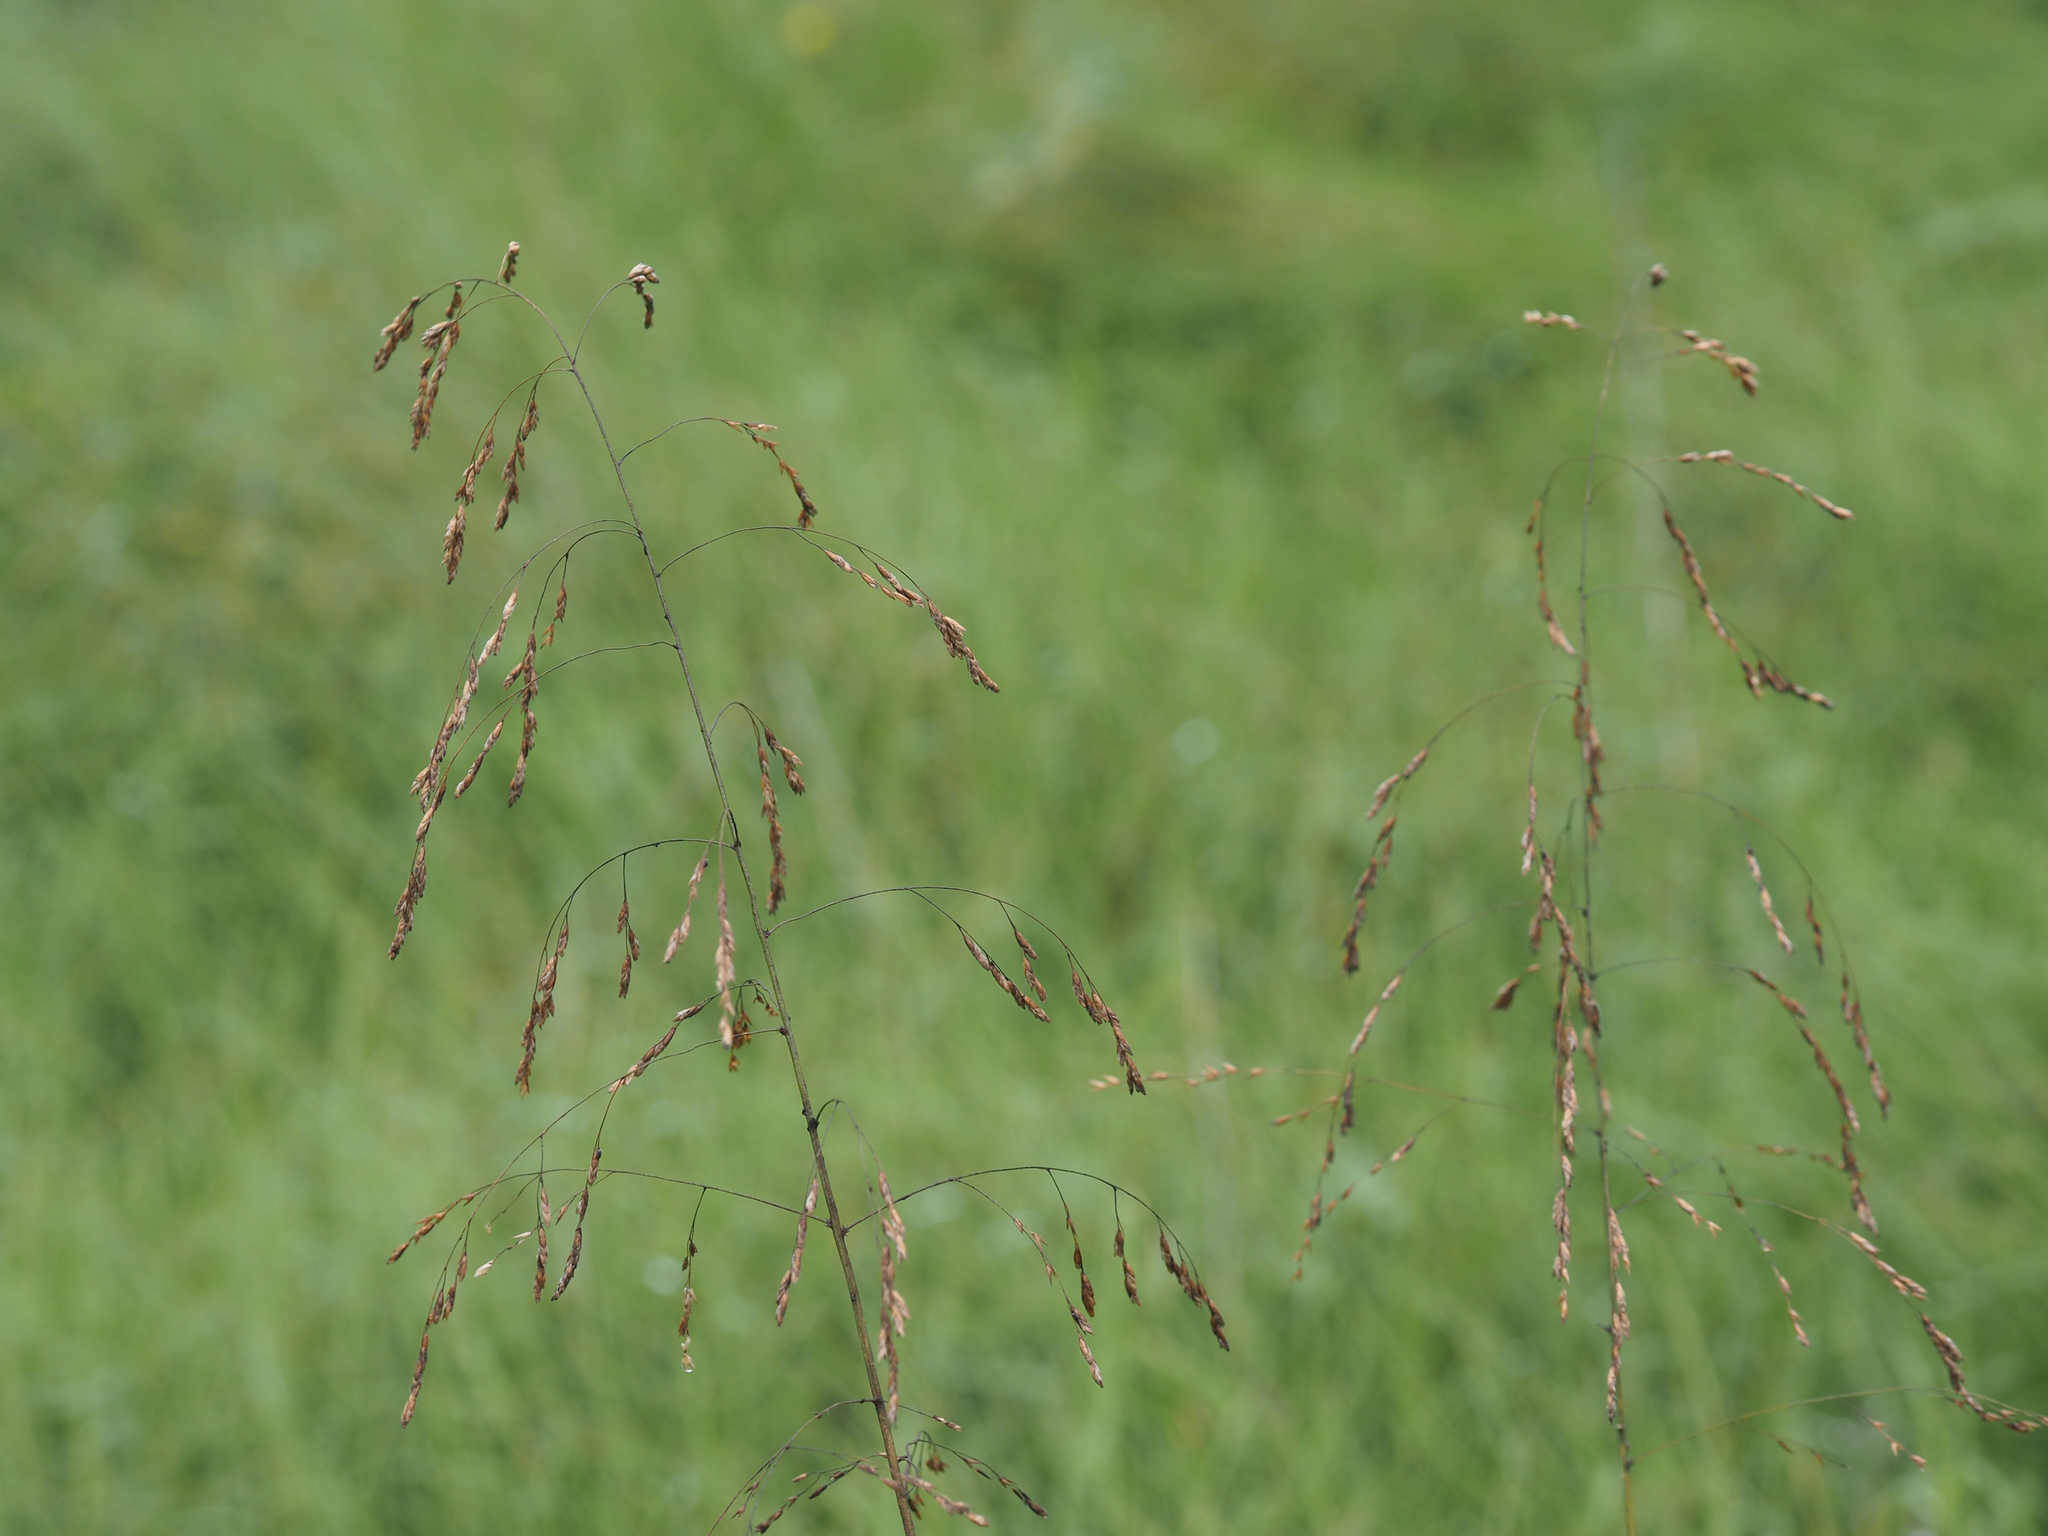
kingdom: Plantae
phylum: Tracheophyta
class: Liliopsida
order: Poales
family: Poaceae
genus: Tridens
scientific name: Tridens flavus
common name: Purpletop
